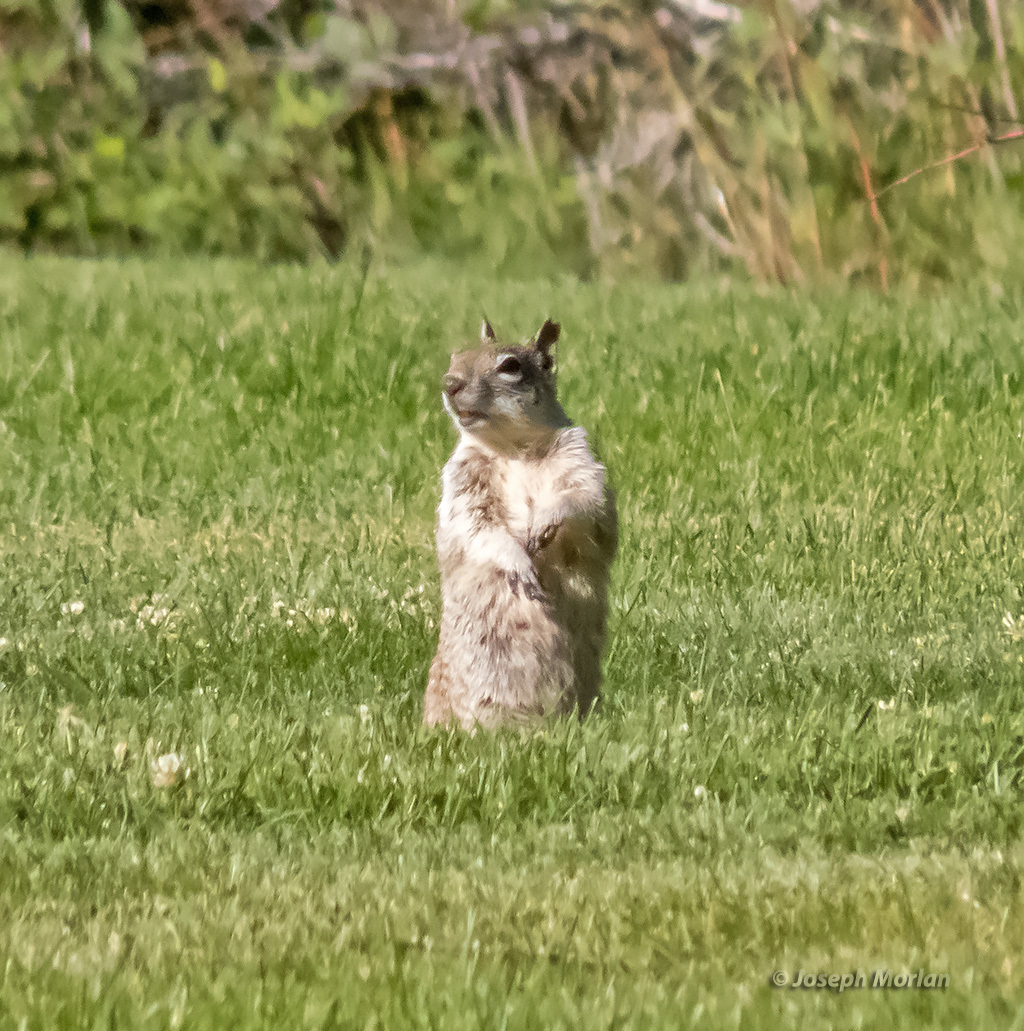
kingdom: Animalia
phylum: Chordata
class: Mammalia
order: Rodentia
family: Sciuridae
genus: Otospermophilus
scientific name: Otospermophilus beecheyi
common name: California ground squirrel
